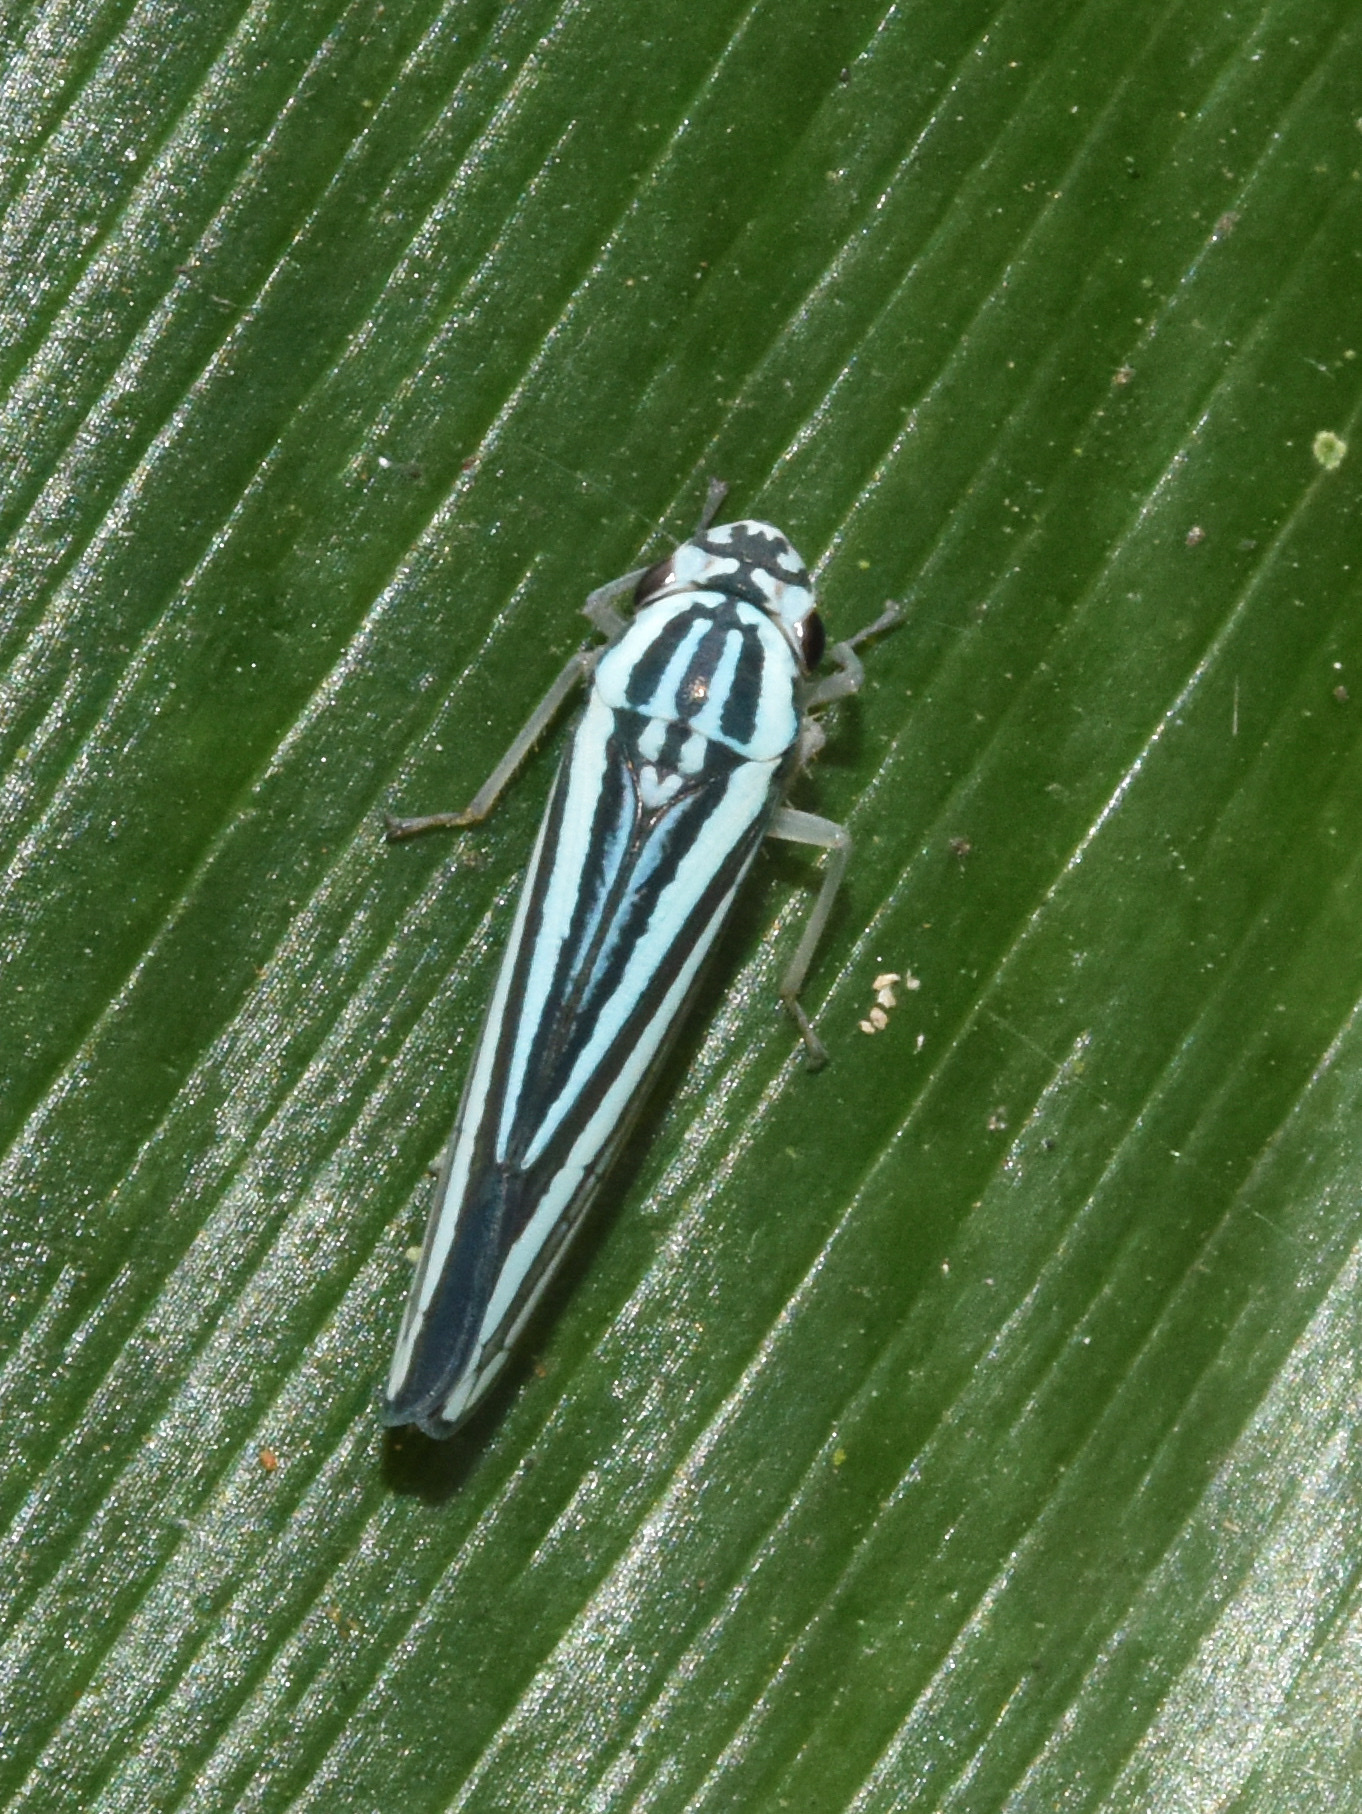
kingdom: Animalia
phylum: Arthropoda
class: Insecta
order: Hemiptera
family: Cicadellidae
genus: Tettigoniella
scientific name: Tettigoniella cosmopolita
